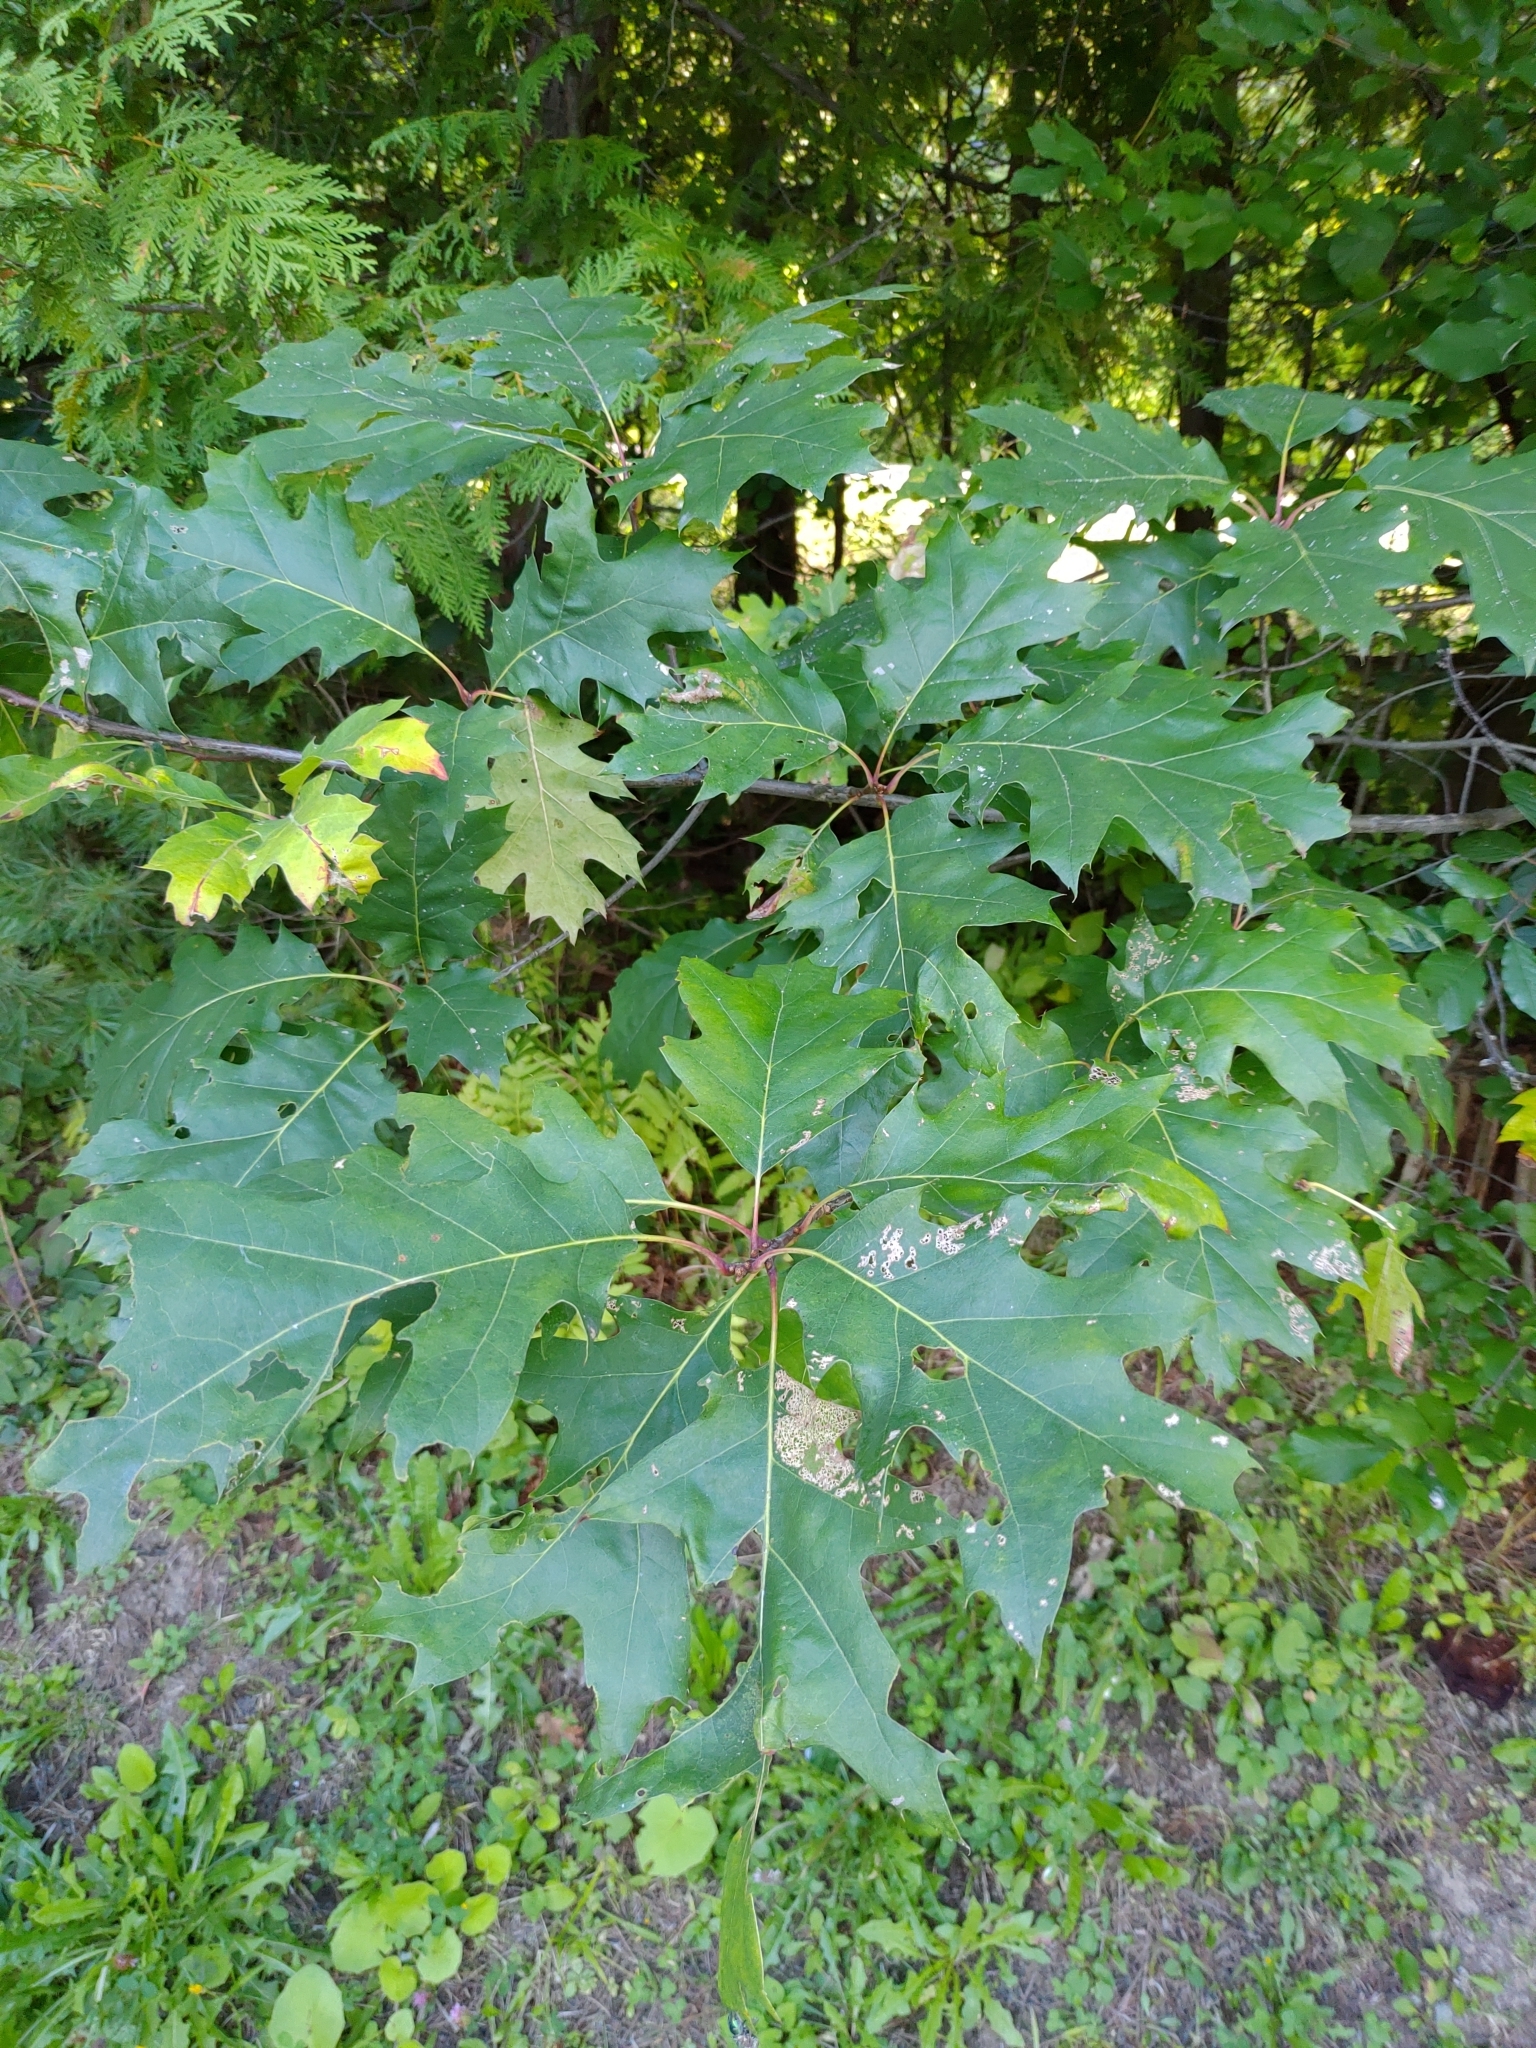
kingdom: Plantae
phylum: Tracheophyta
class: Magnoliopsida
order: Fagales
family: Fagaceae
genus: Quercus
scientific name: Quercus rubra
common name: Red oak
